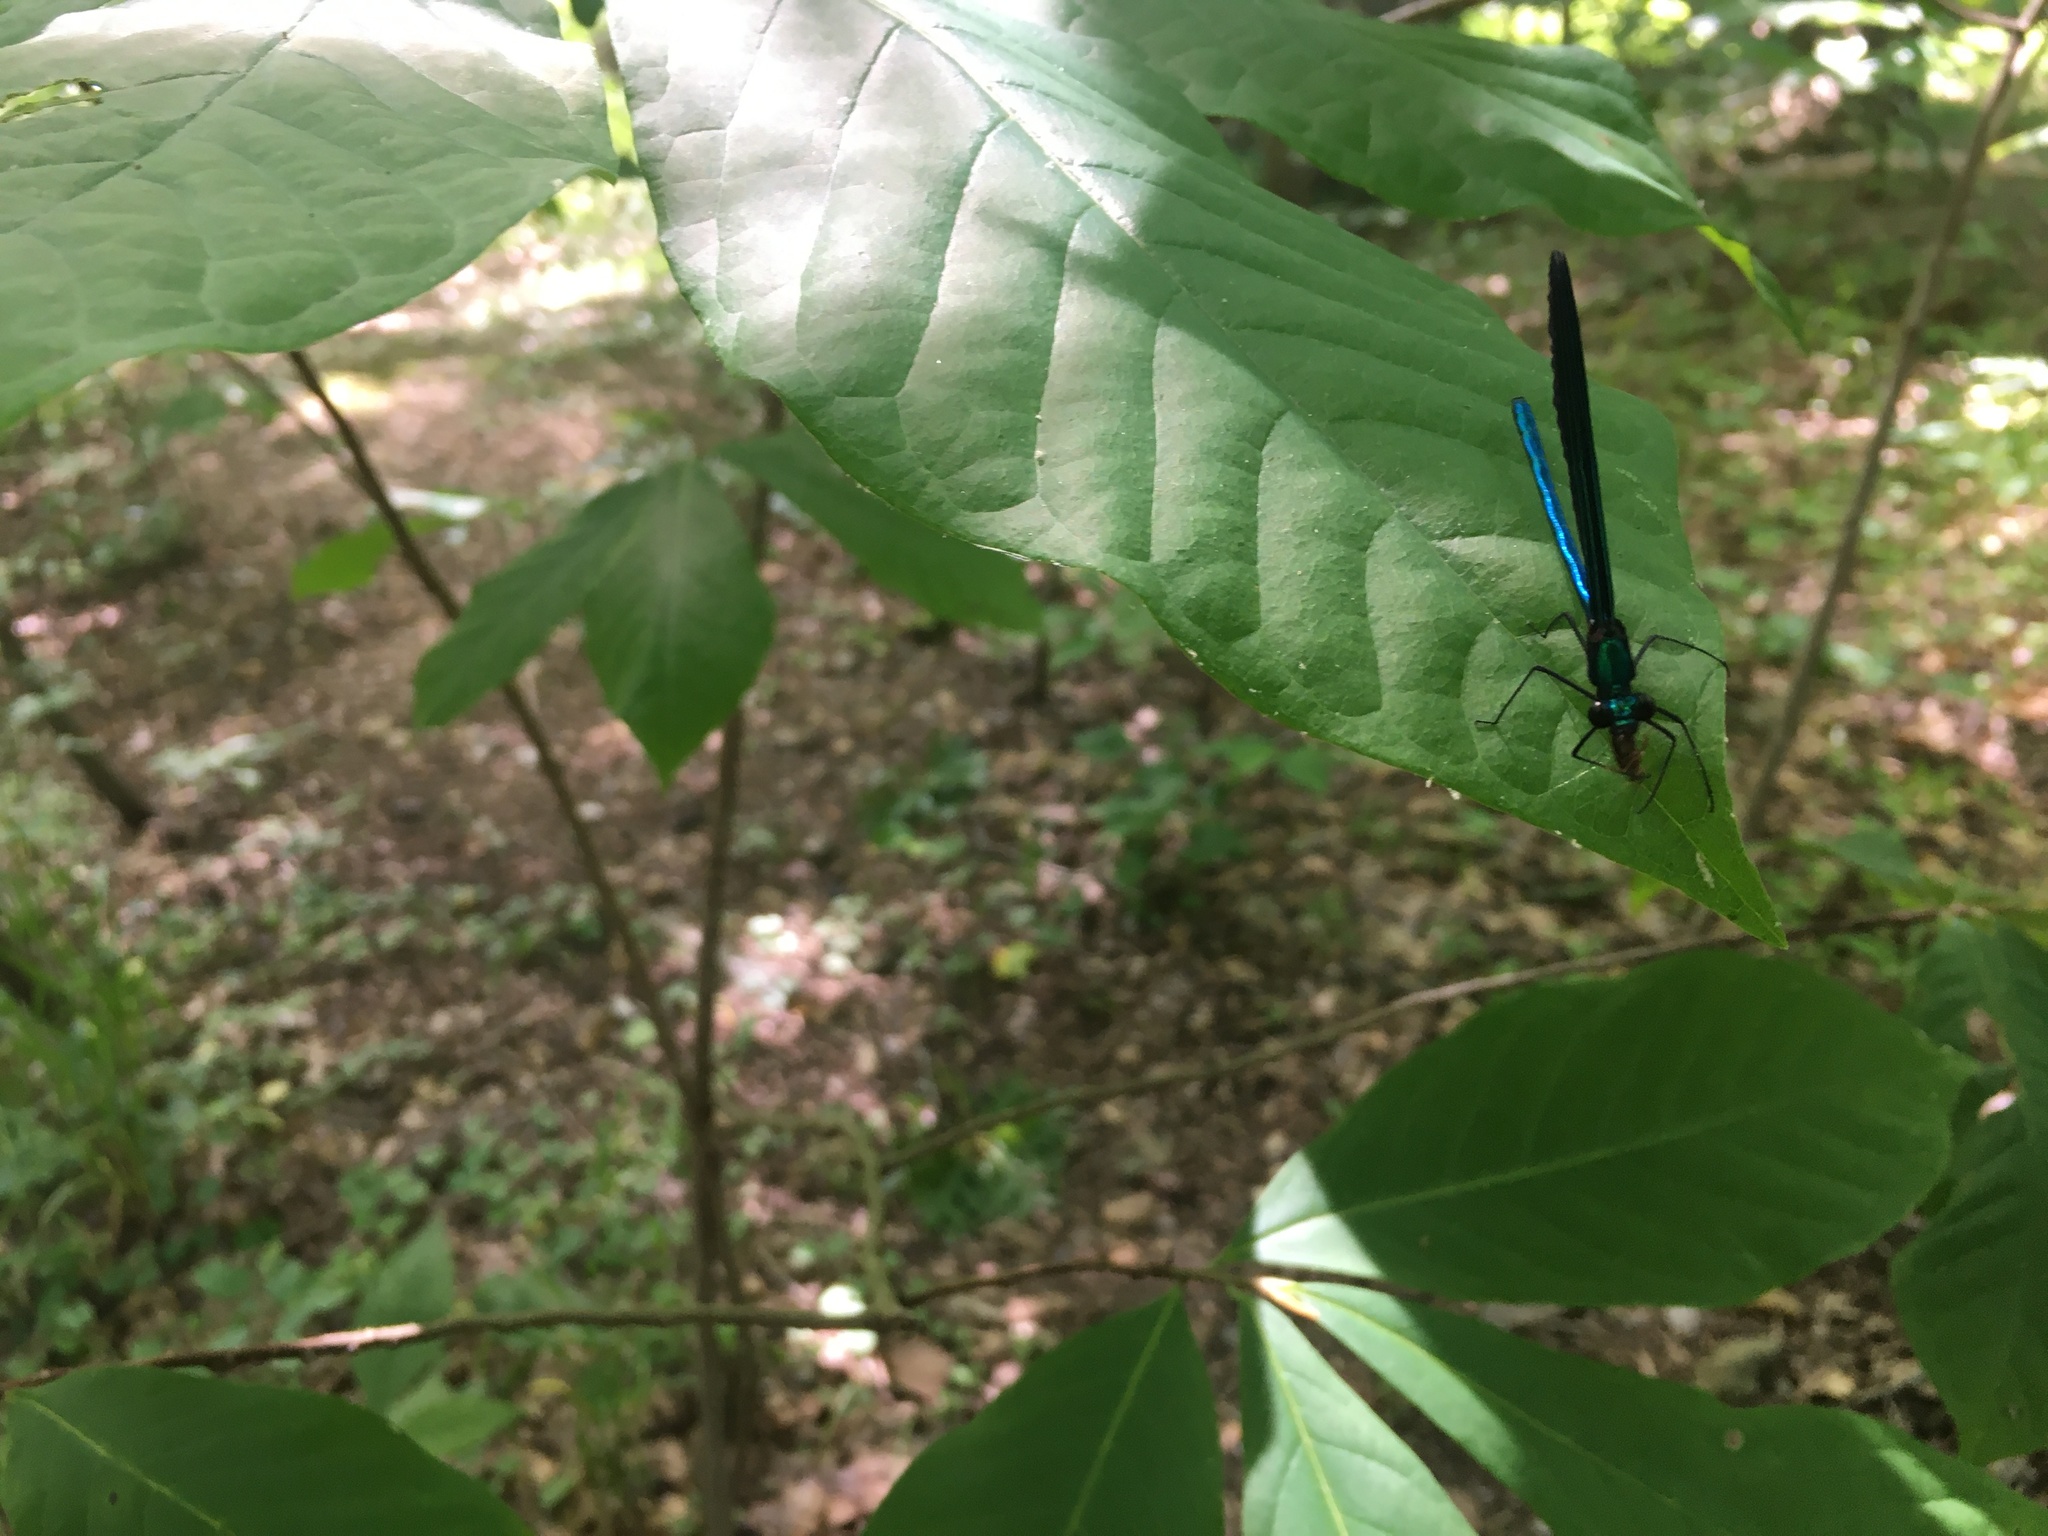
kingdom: Animalia
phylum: Arthropoda
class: Insecta
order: Odonata
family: Calopterygidae
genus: Calopteryx
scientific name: Calopteryx maculata
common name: Ebony jewelwing
